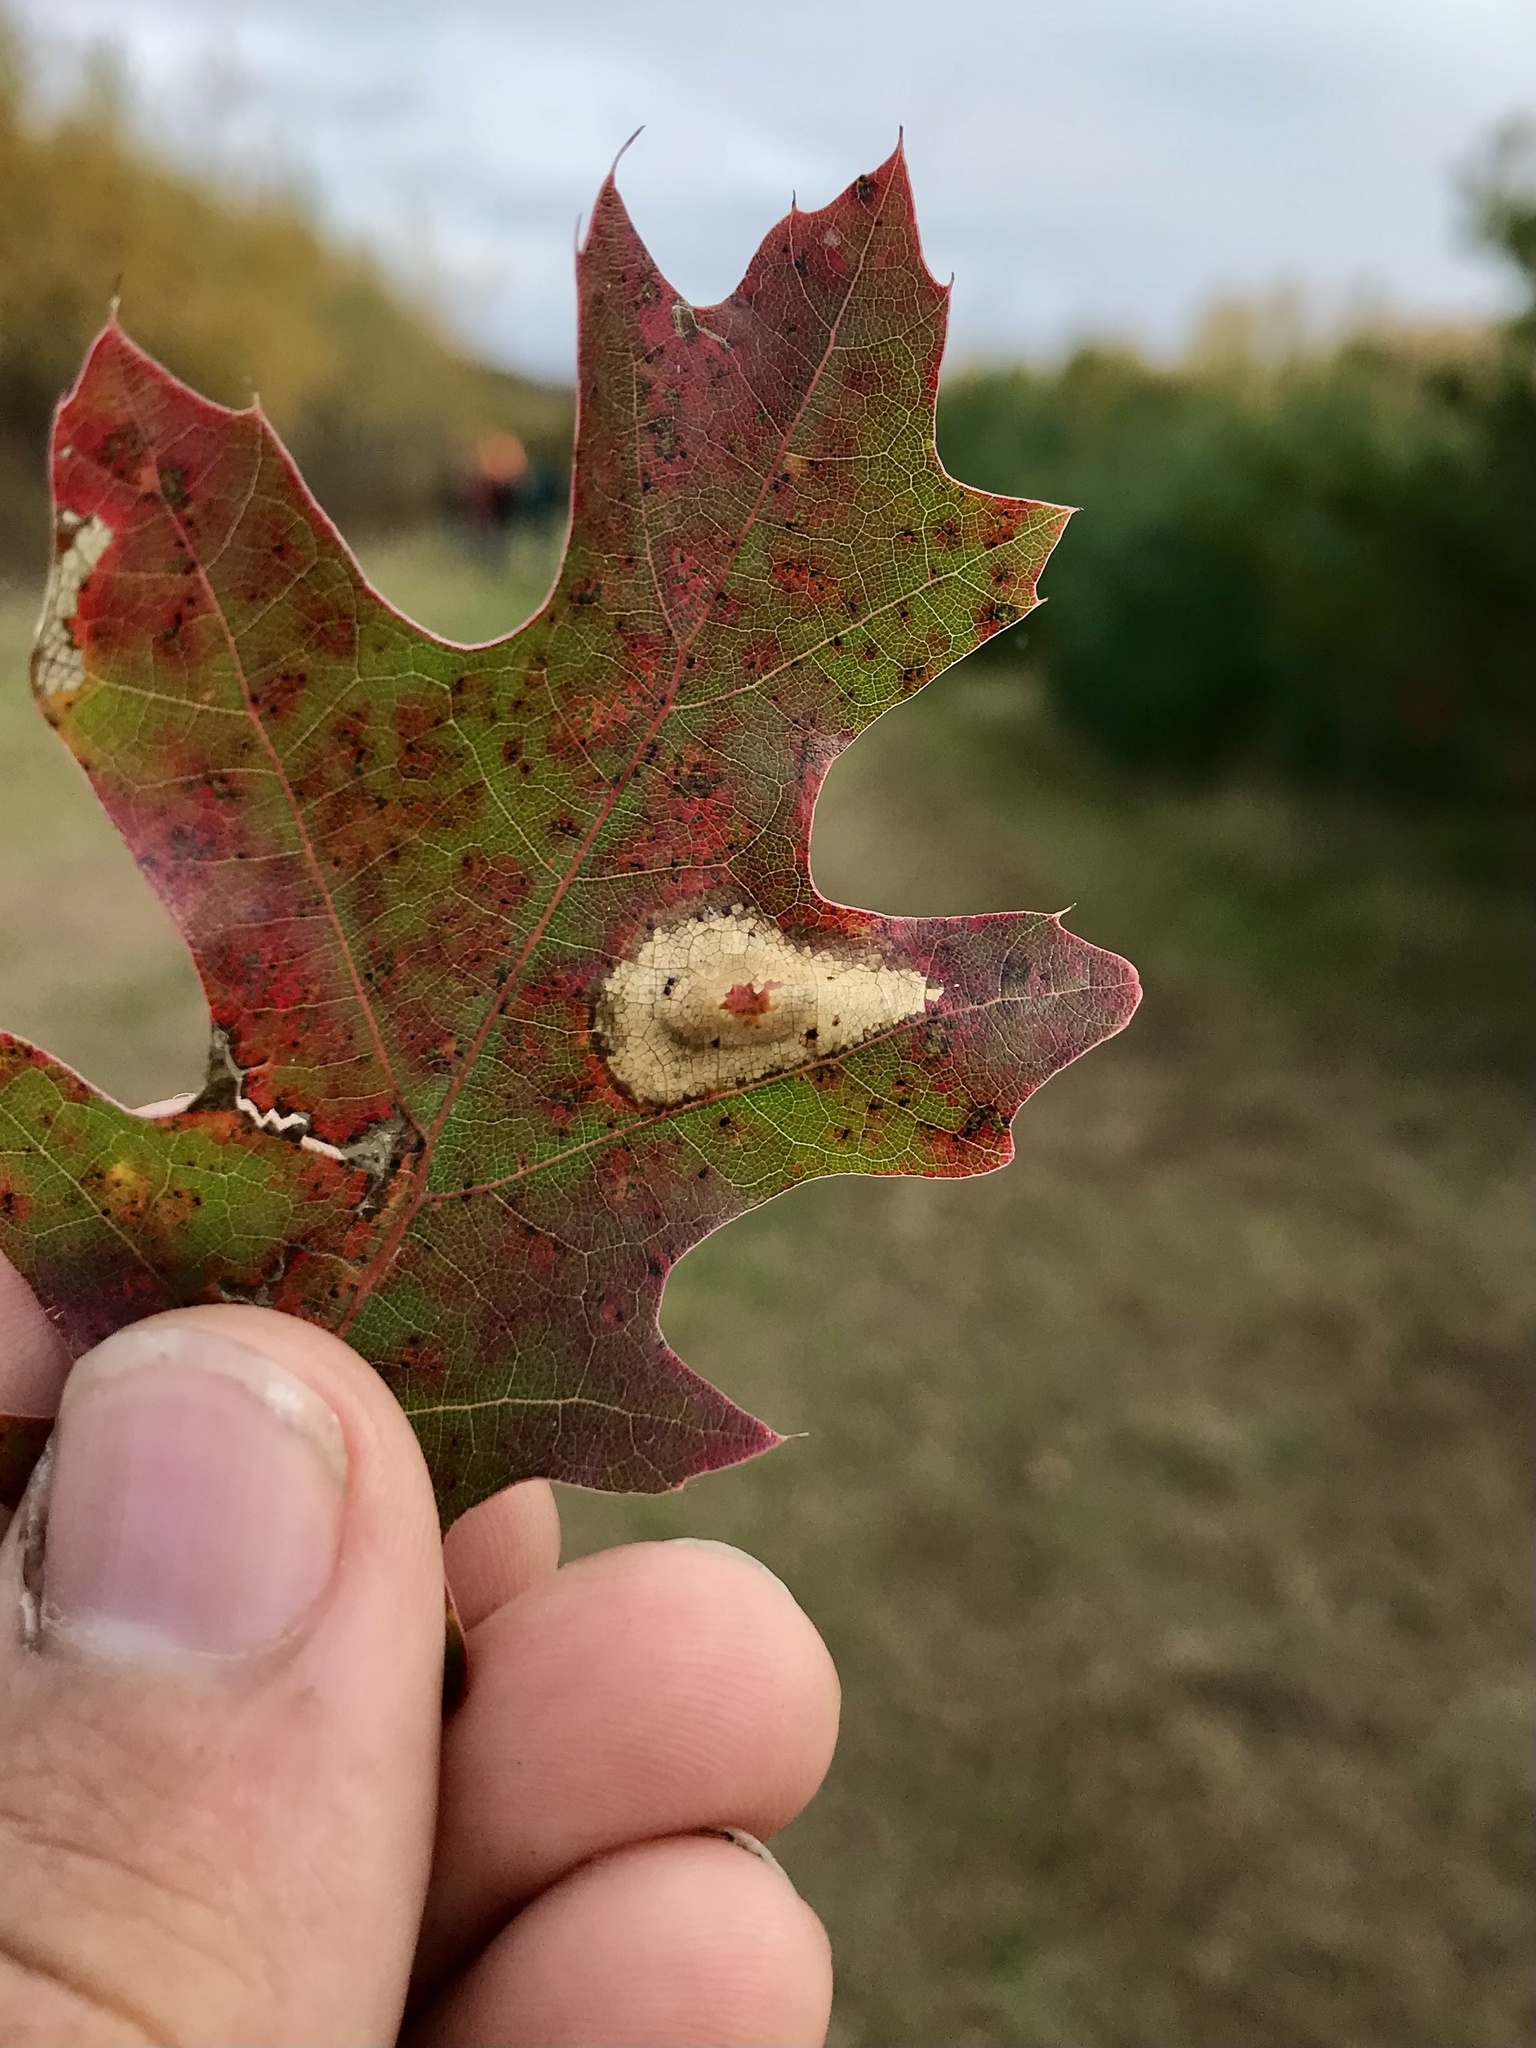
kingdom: Animalia
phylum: Arthropoda
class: Insecta
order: Lepidoptera
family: Gracillariidae
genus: Phyllonorycter
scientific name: Phyllonorycter basistrigella
